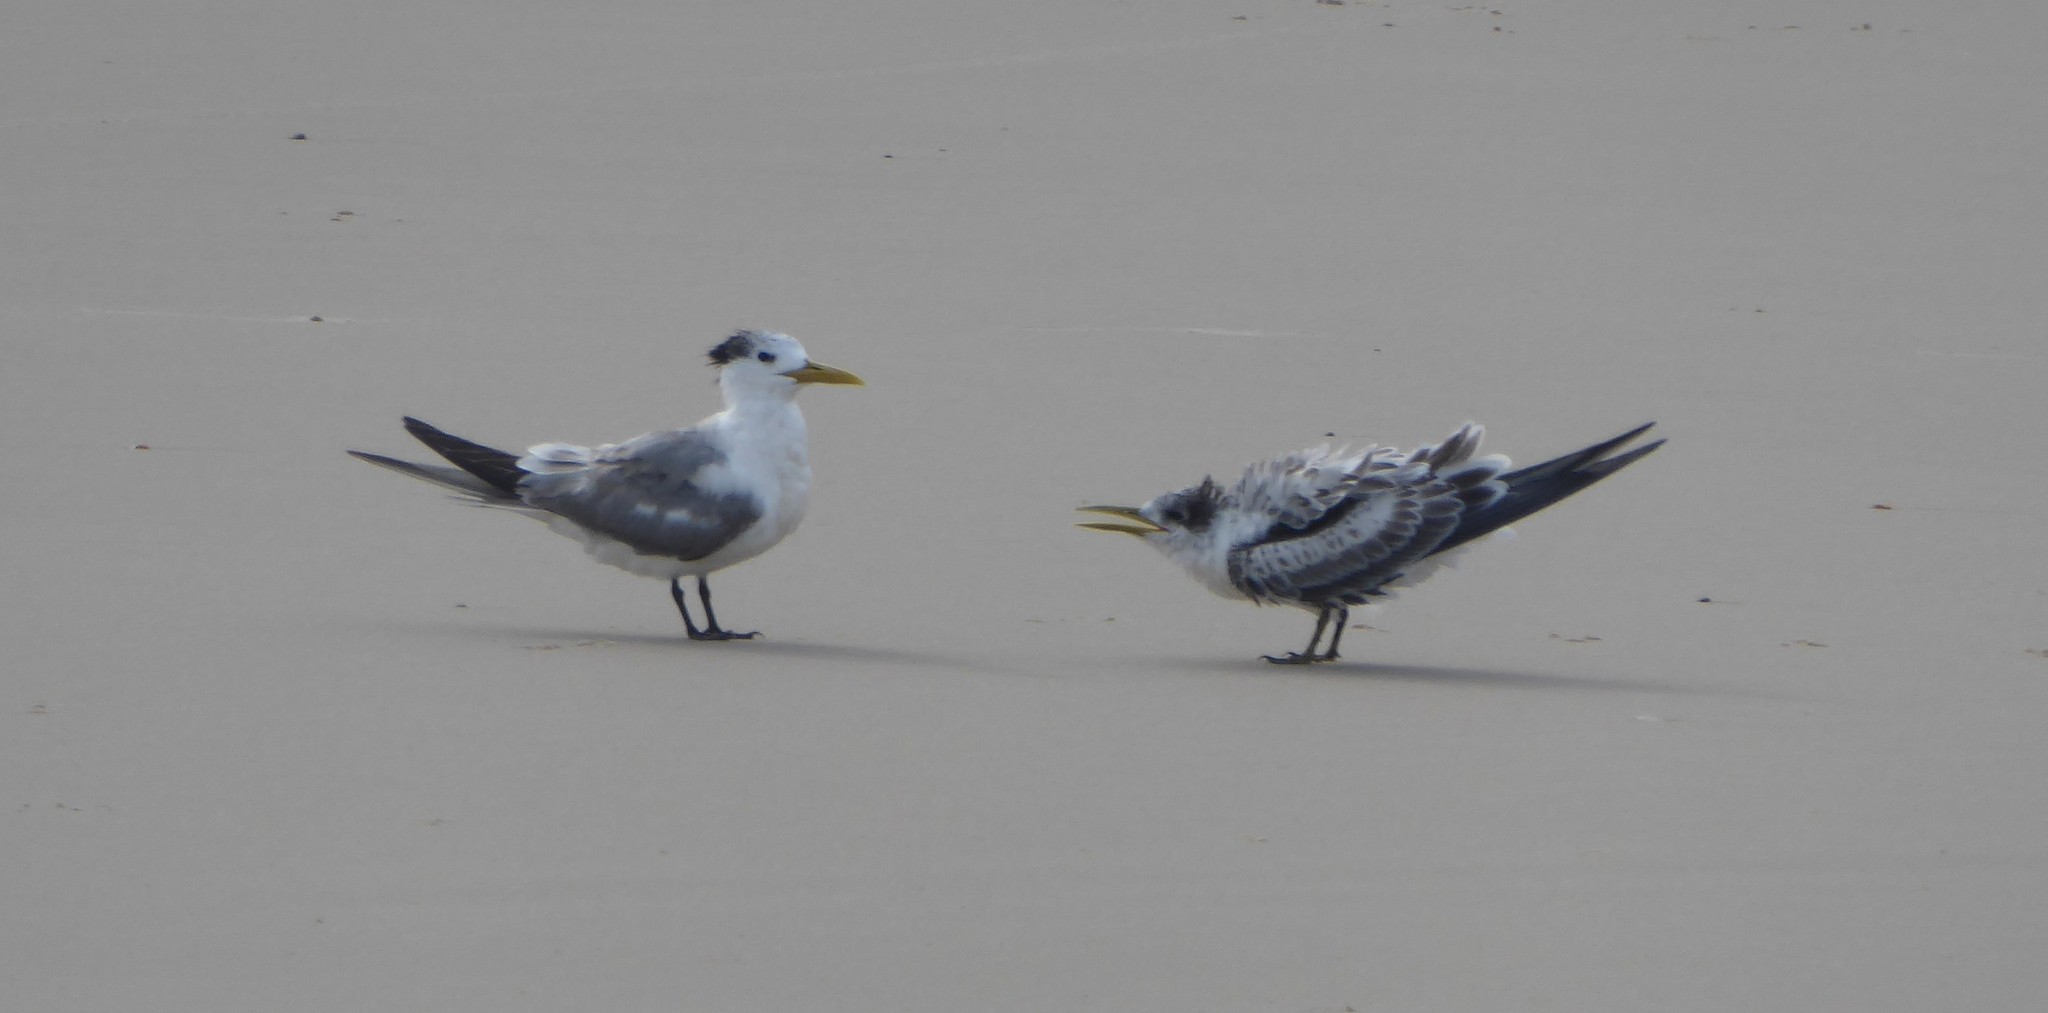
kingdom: Animalia
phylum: Chordata
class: Aves
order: Charadriiformes
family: Laridae
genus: Thalasseus
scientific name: Thalasseus bergii
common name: Greater crested tern
